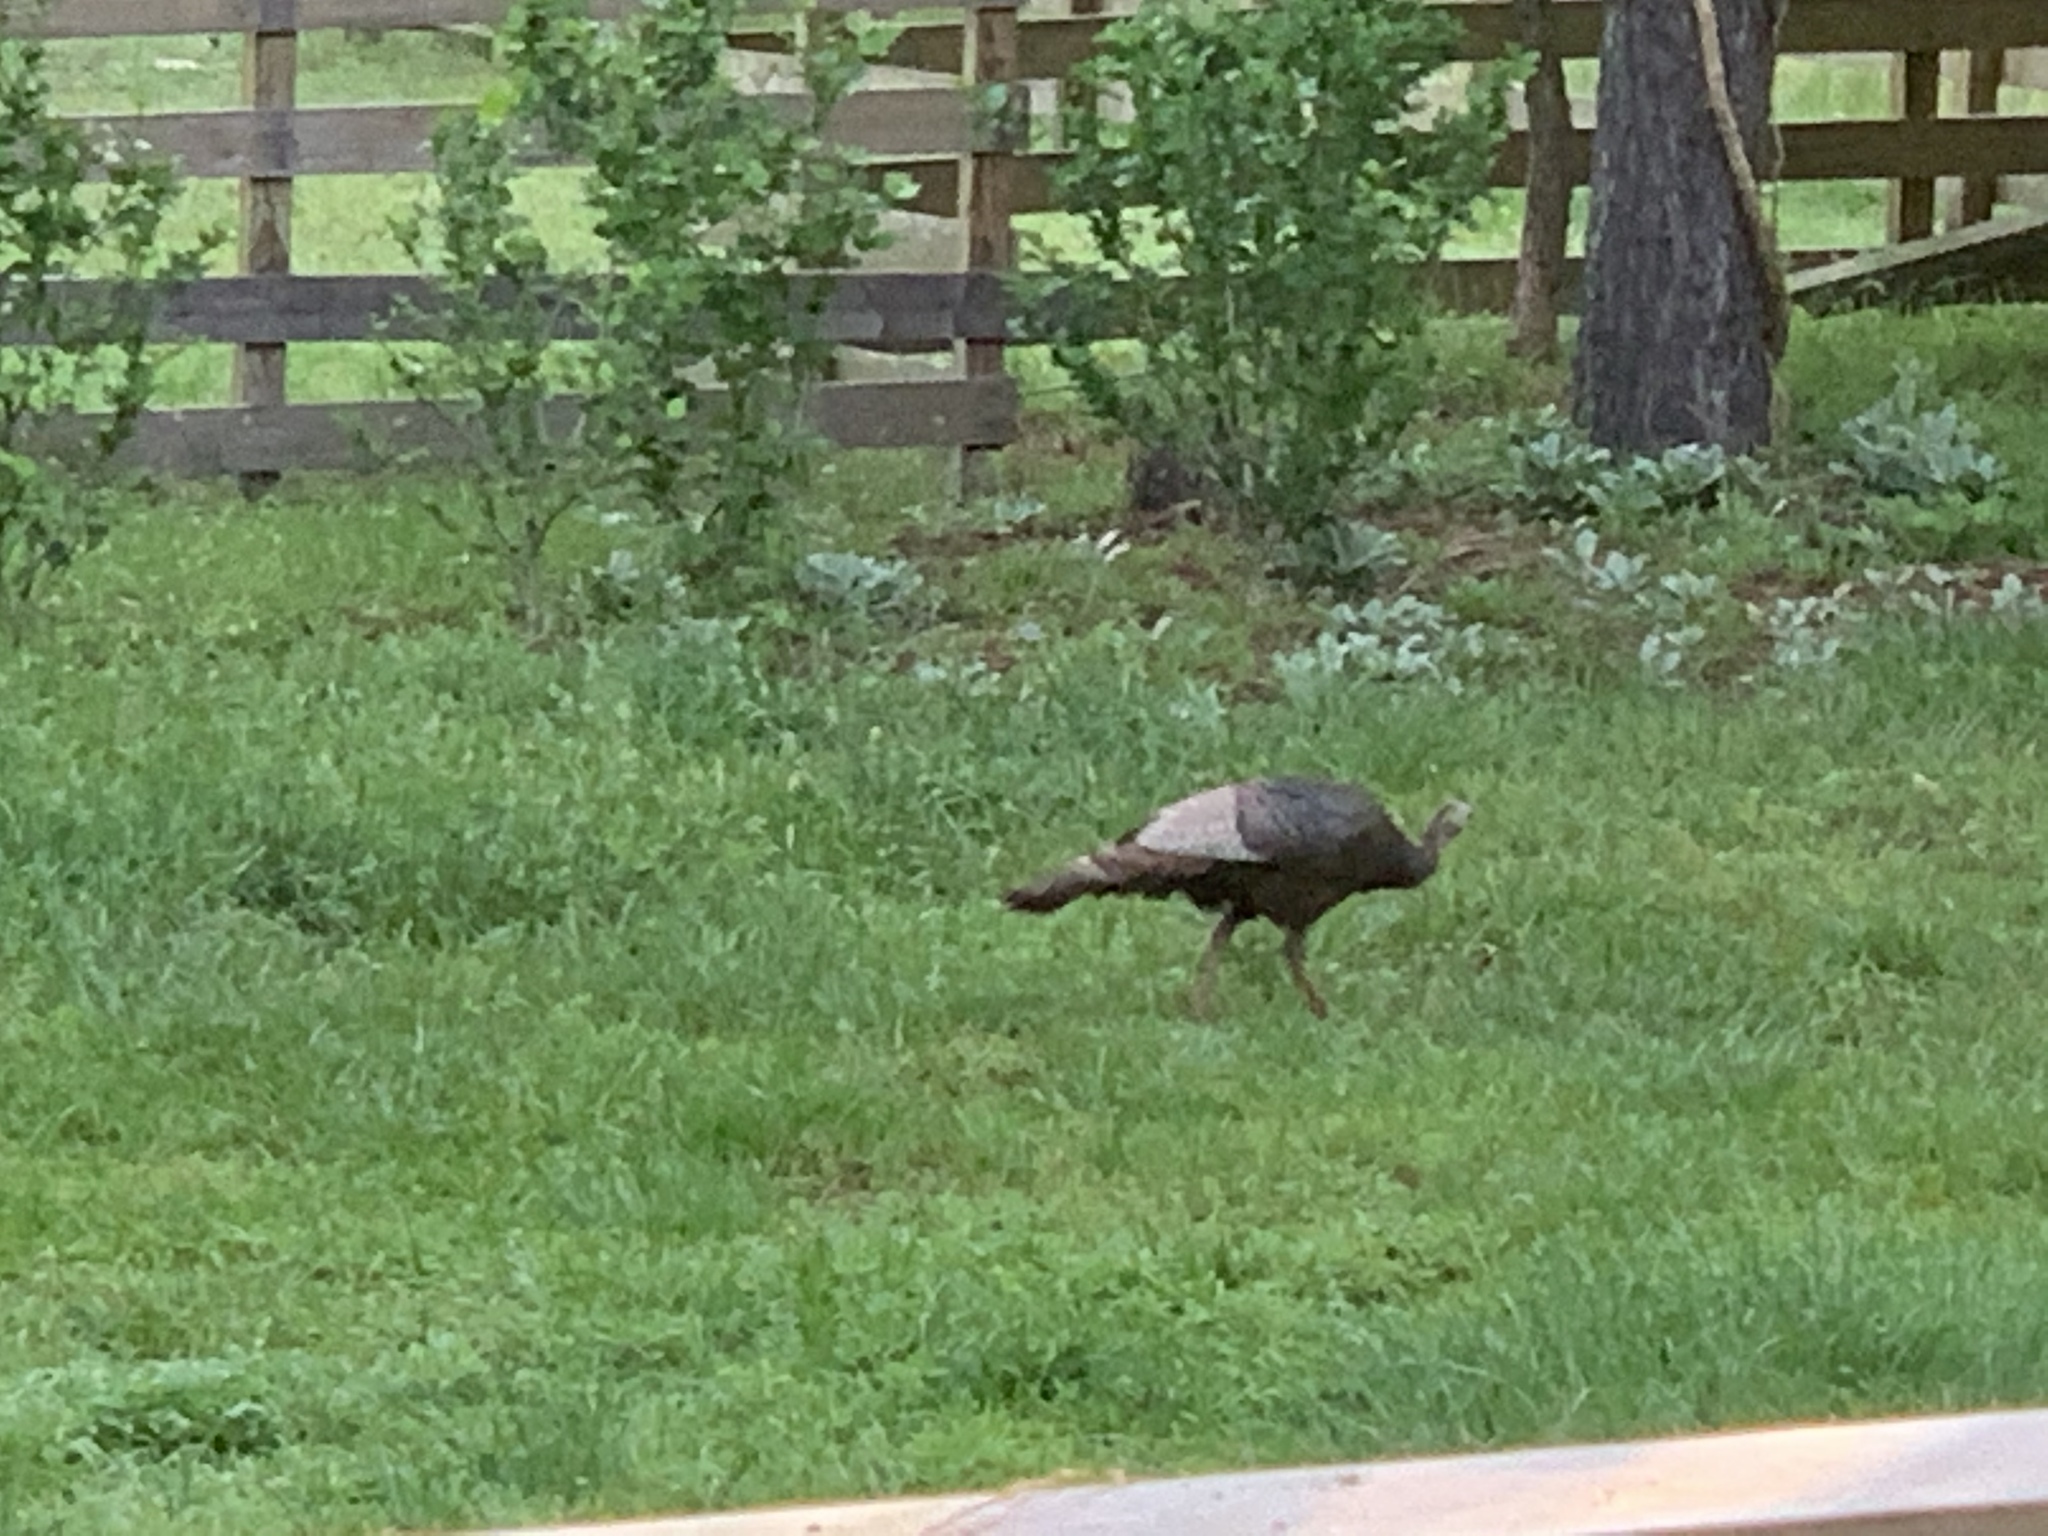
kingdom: Animalia
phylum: Chordata
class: Aves
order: Galliformes
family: Phasianidae
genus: Meleagris
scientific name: Meleagris gallopavo
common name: Wild turkey
